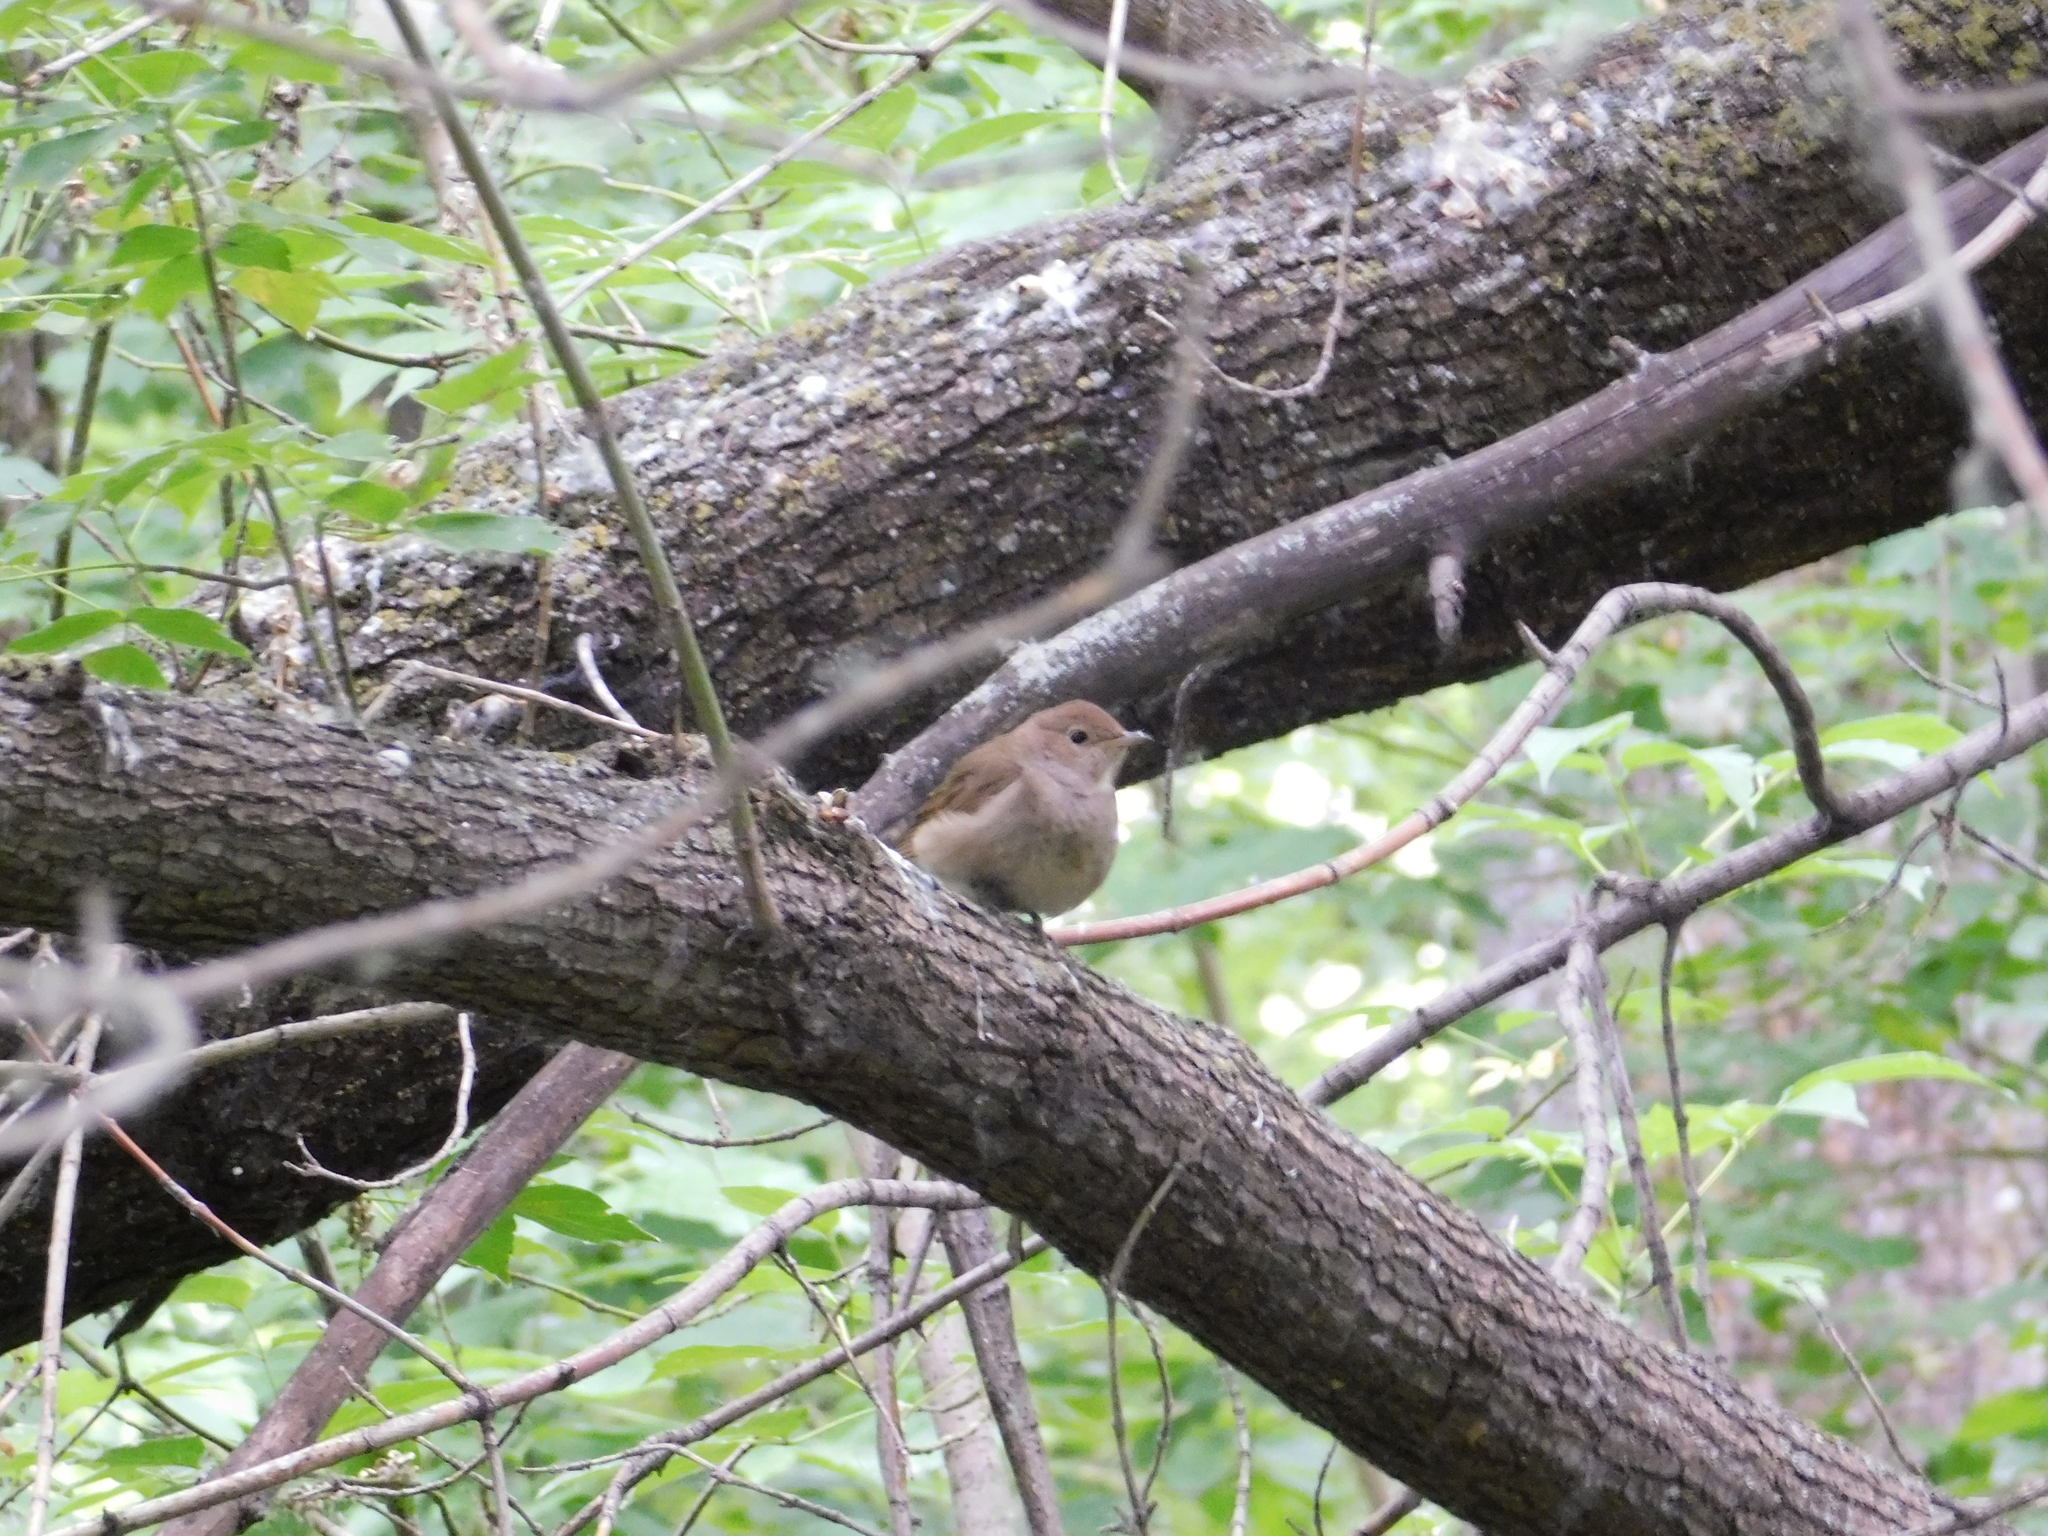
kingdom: Animalia
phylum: Chordata
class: Aves
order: Passeriformes
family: Muscicapidae
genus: Luscinia
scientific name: Luscinia luscinia
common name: Thrush nightingale
